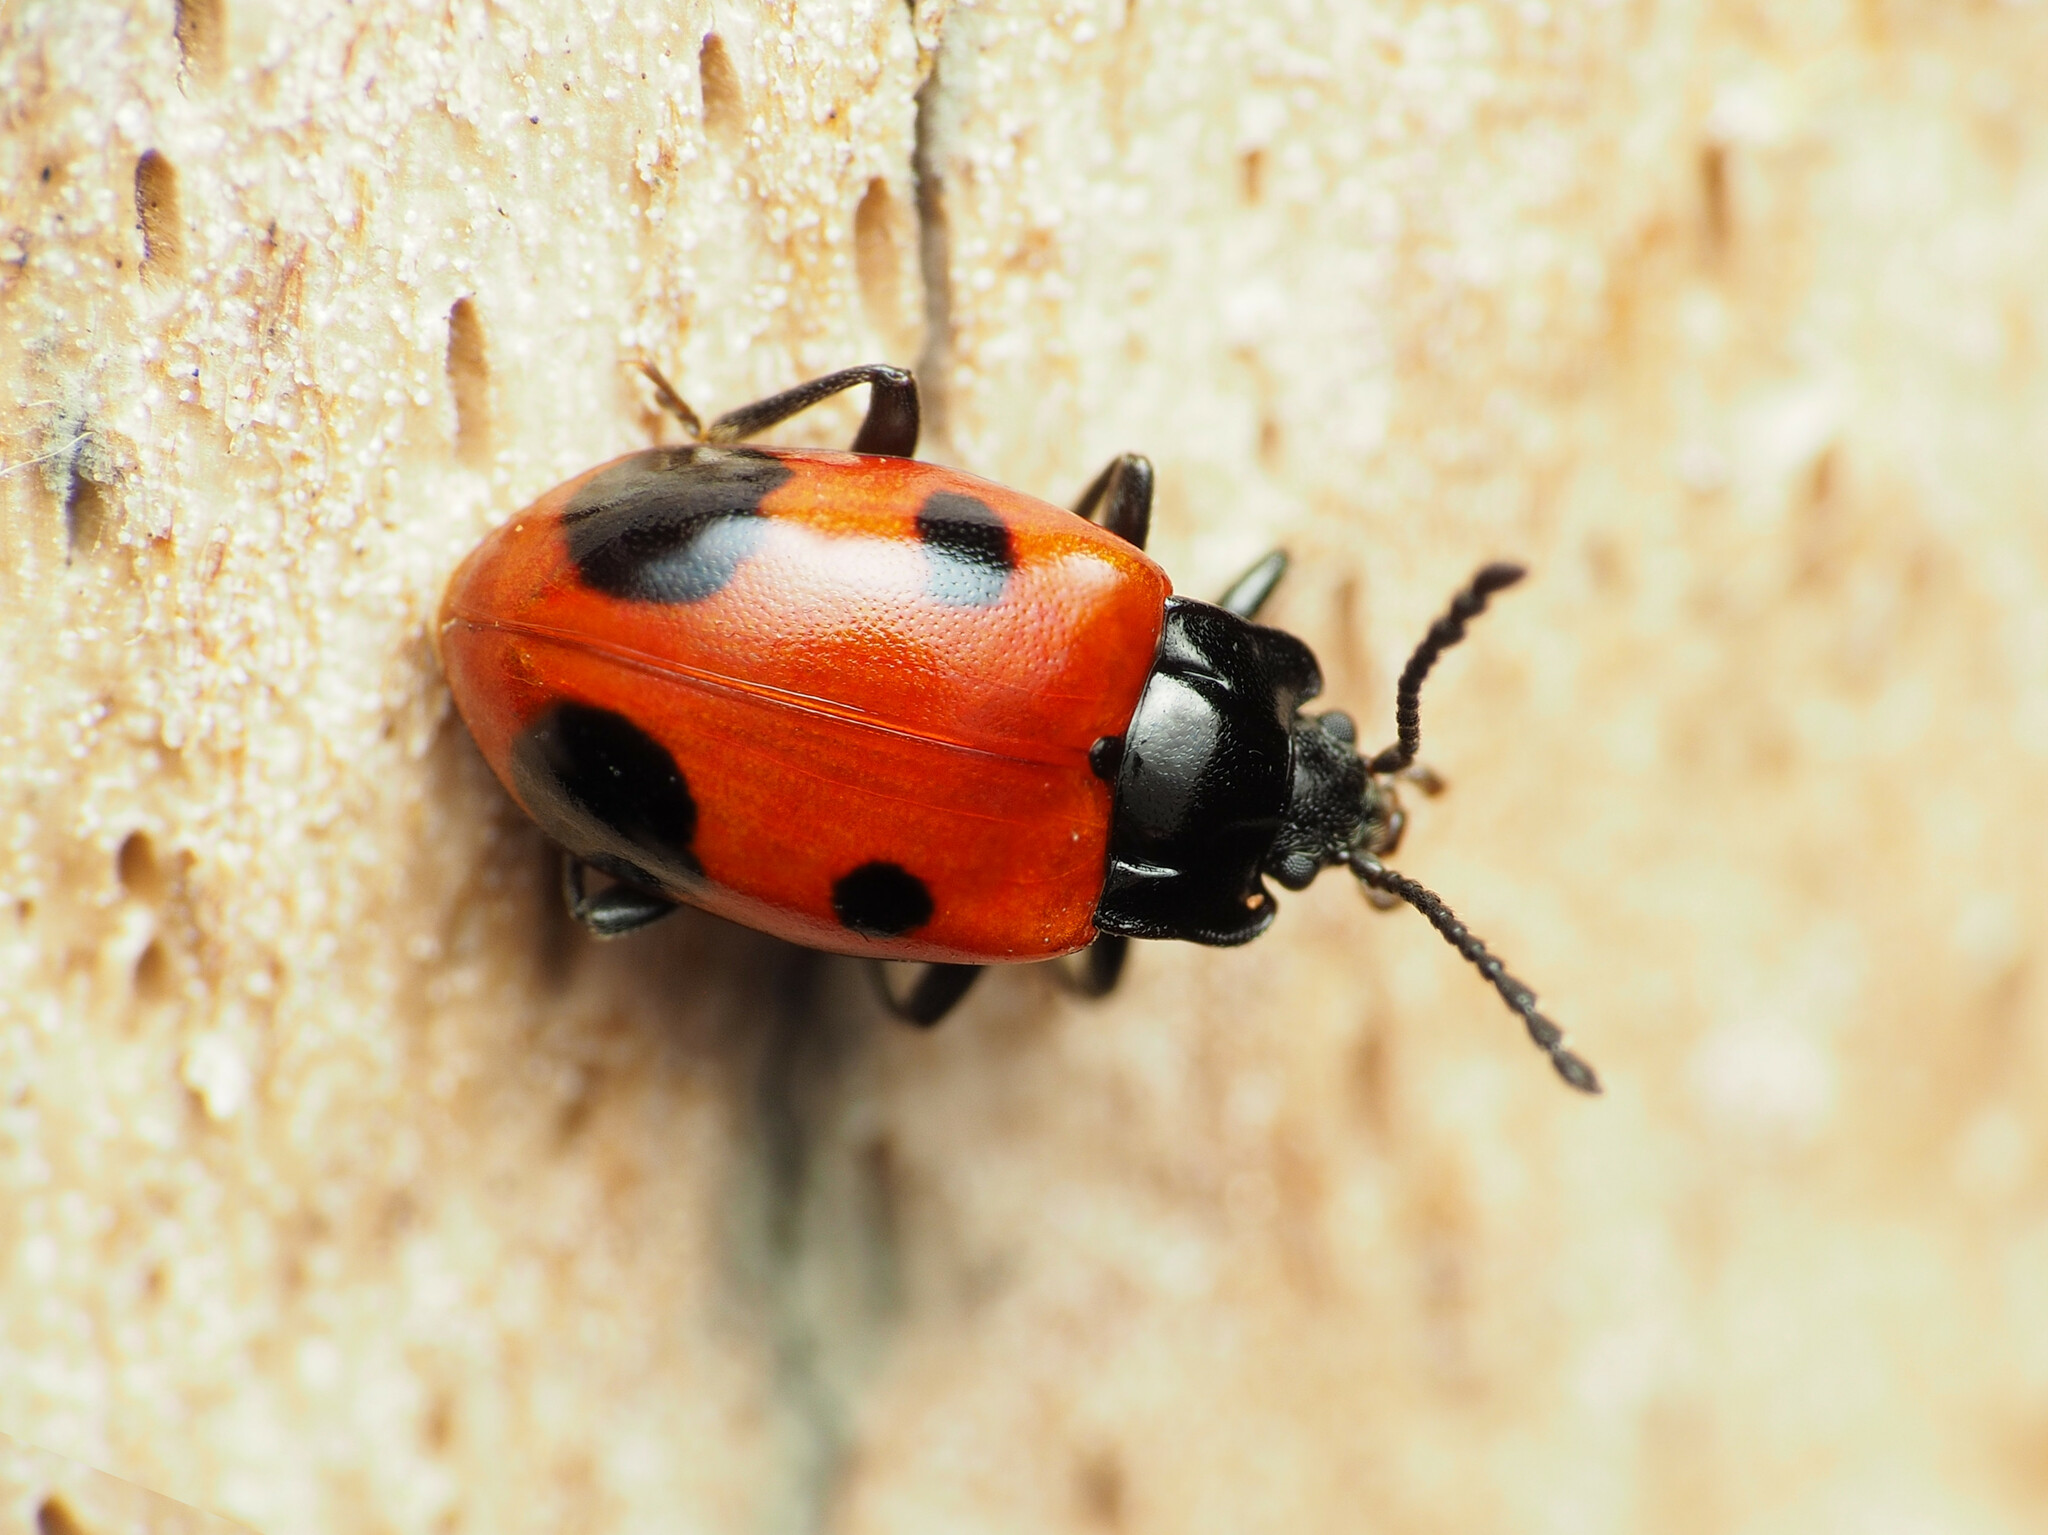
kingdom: Animalia
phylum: Arthropoda
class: Insecta
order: Coleoptera
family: Endomychidae
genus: Endomychus
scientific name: Endomychus biguttatus
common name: Handsome fungus beetle
